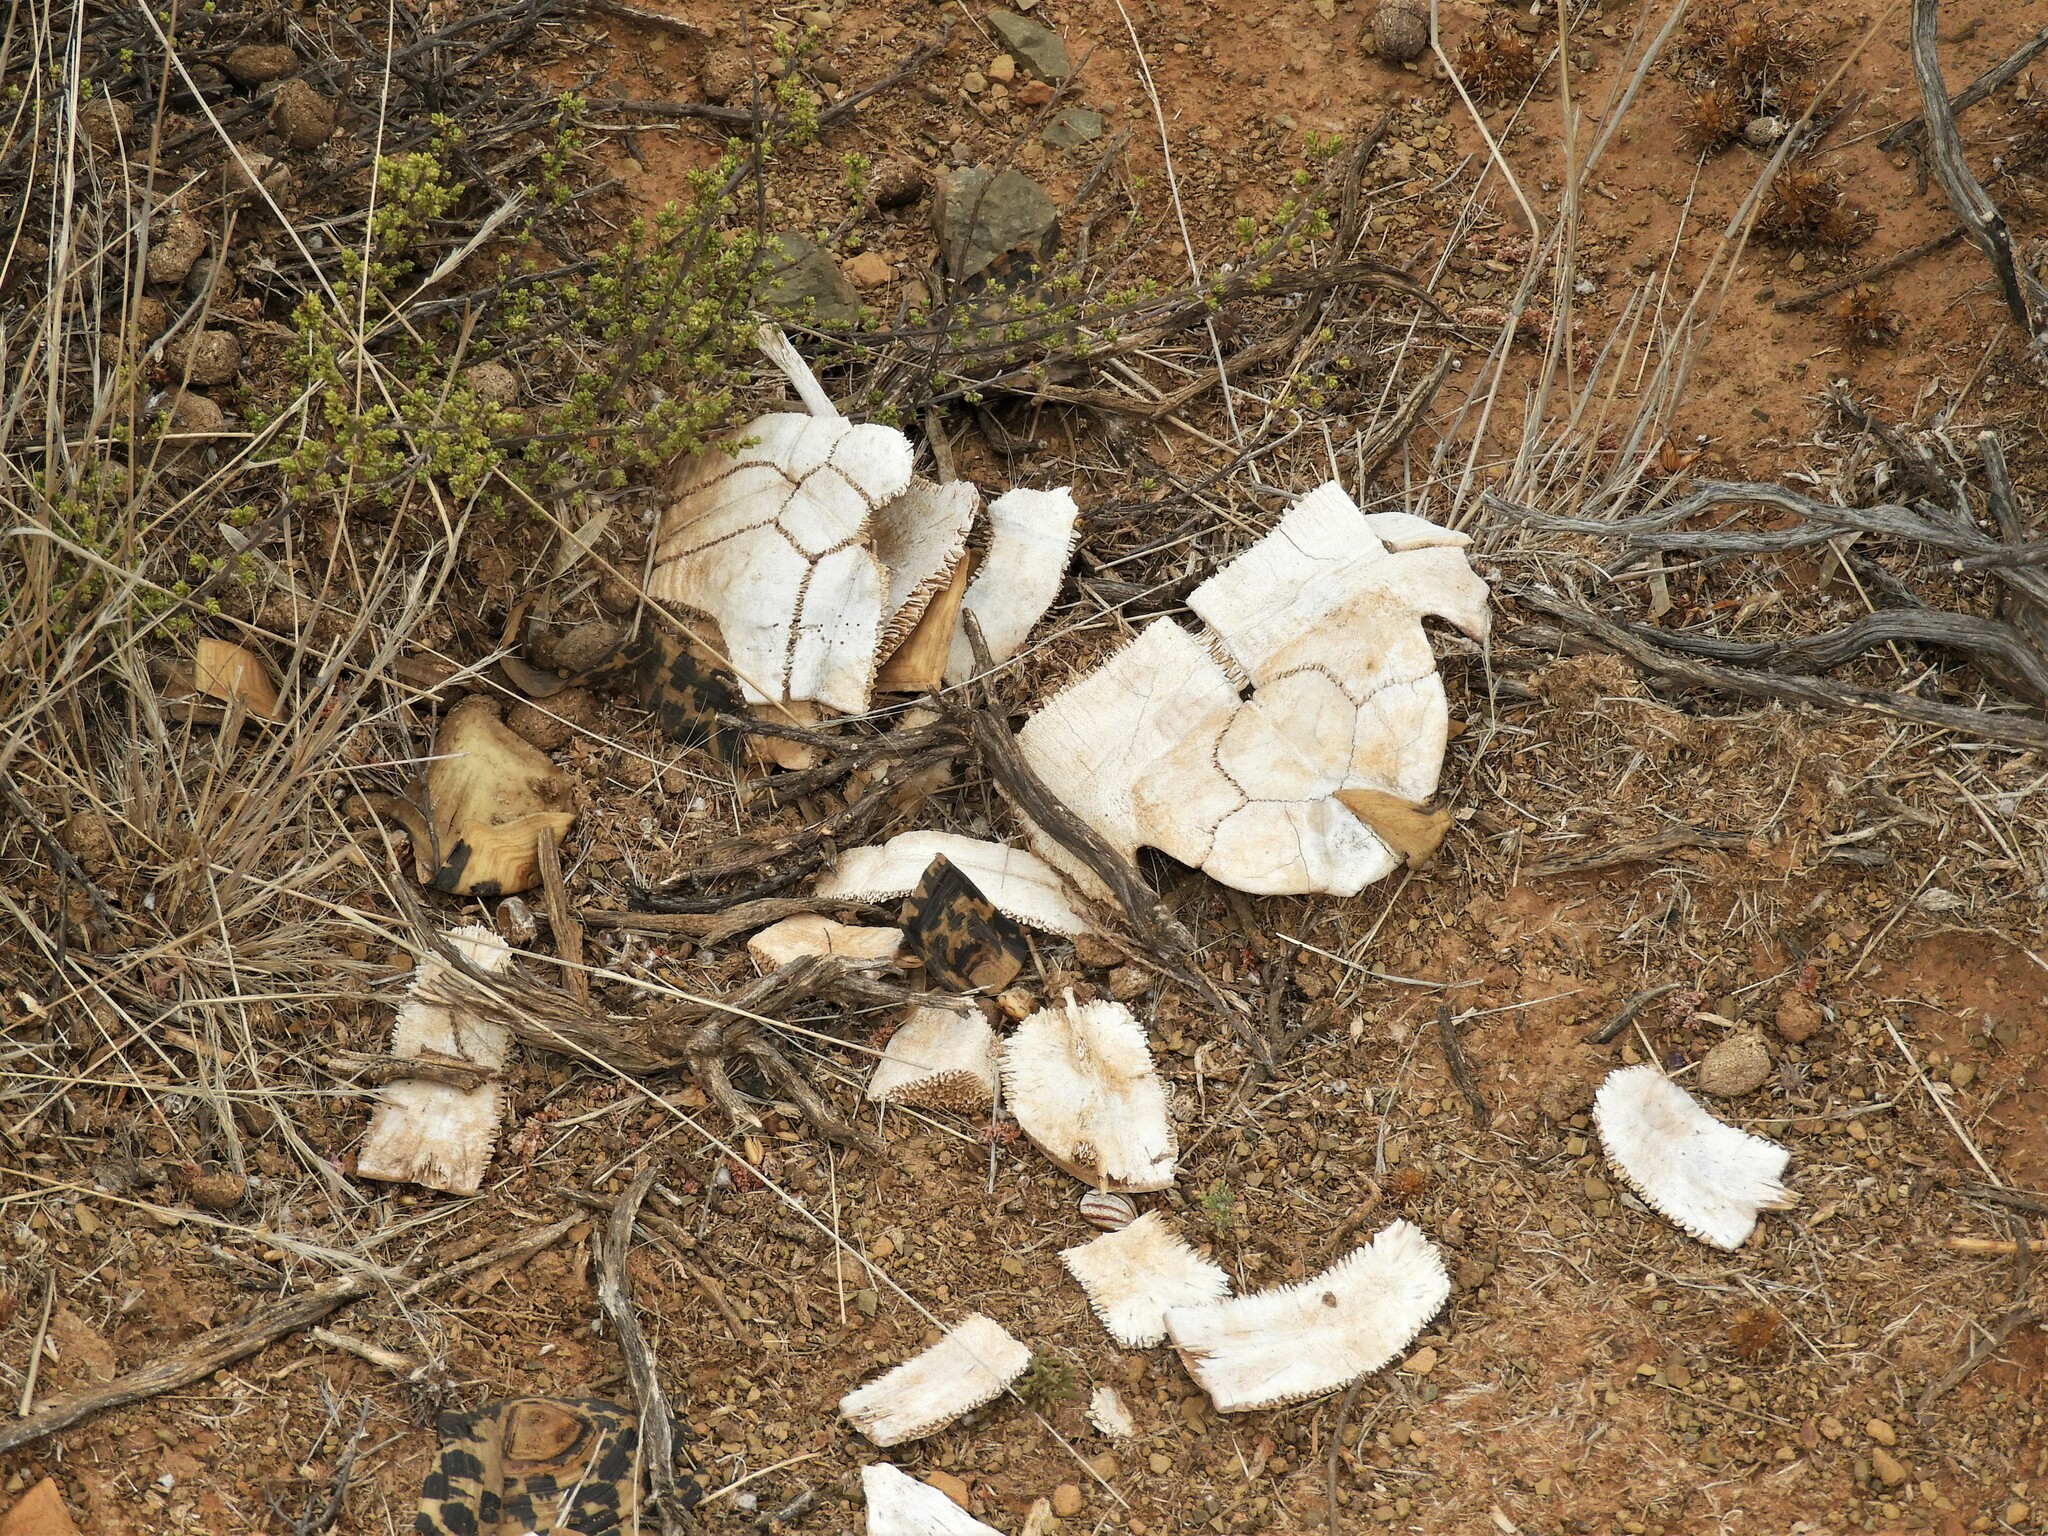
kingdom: Animalia
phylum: Chordata
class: Testudines
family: Testudinidae
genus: Stigmochelys
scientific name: Stigmochelys pardalis
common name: Leopard tortoise
